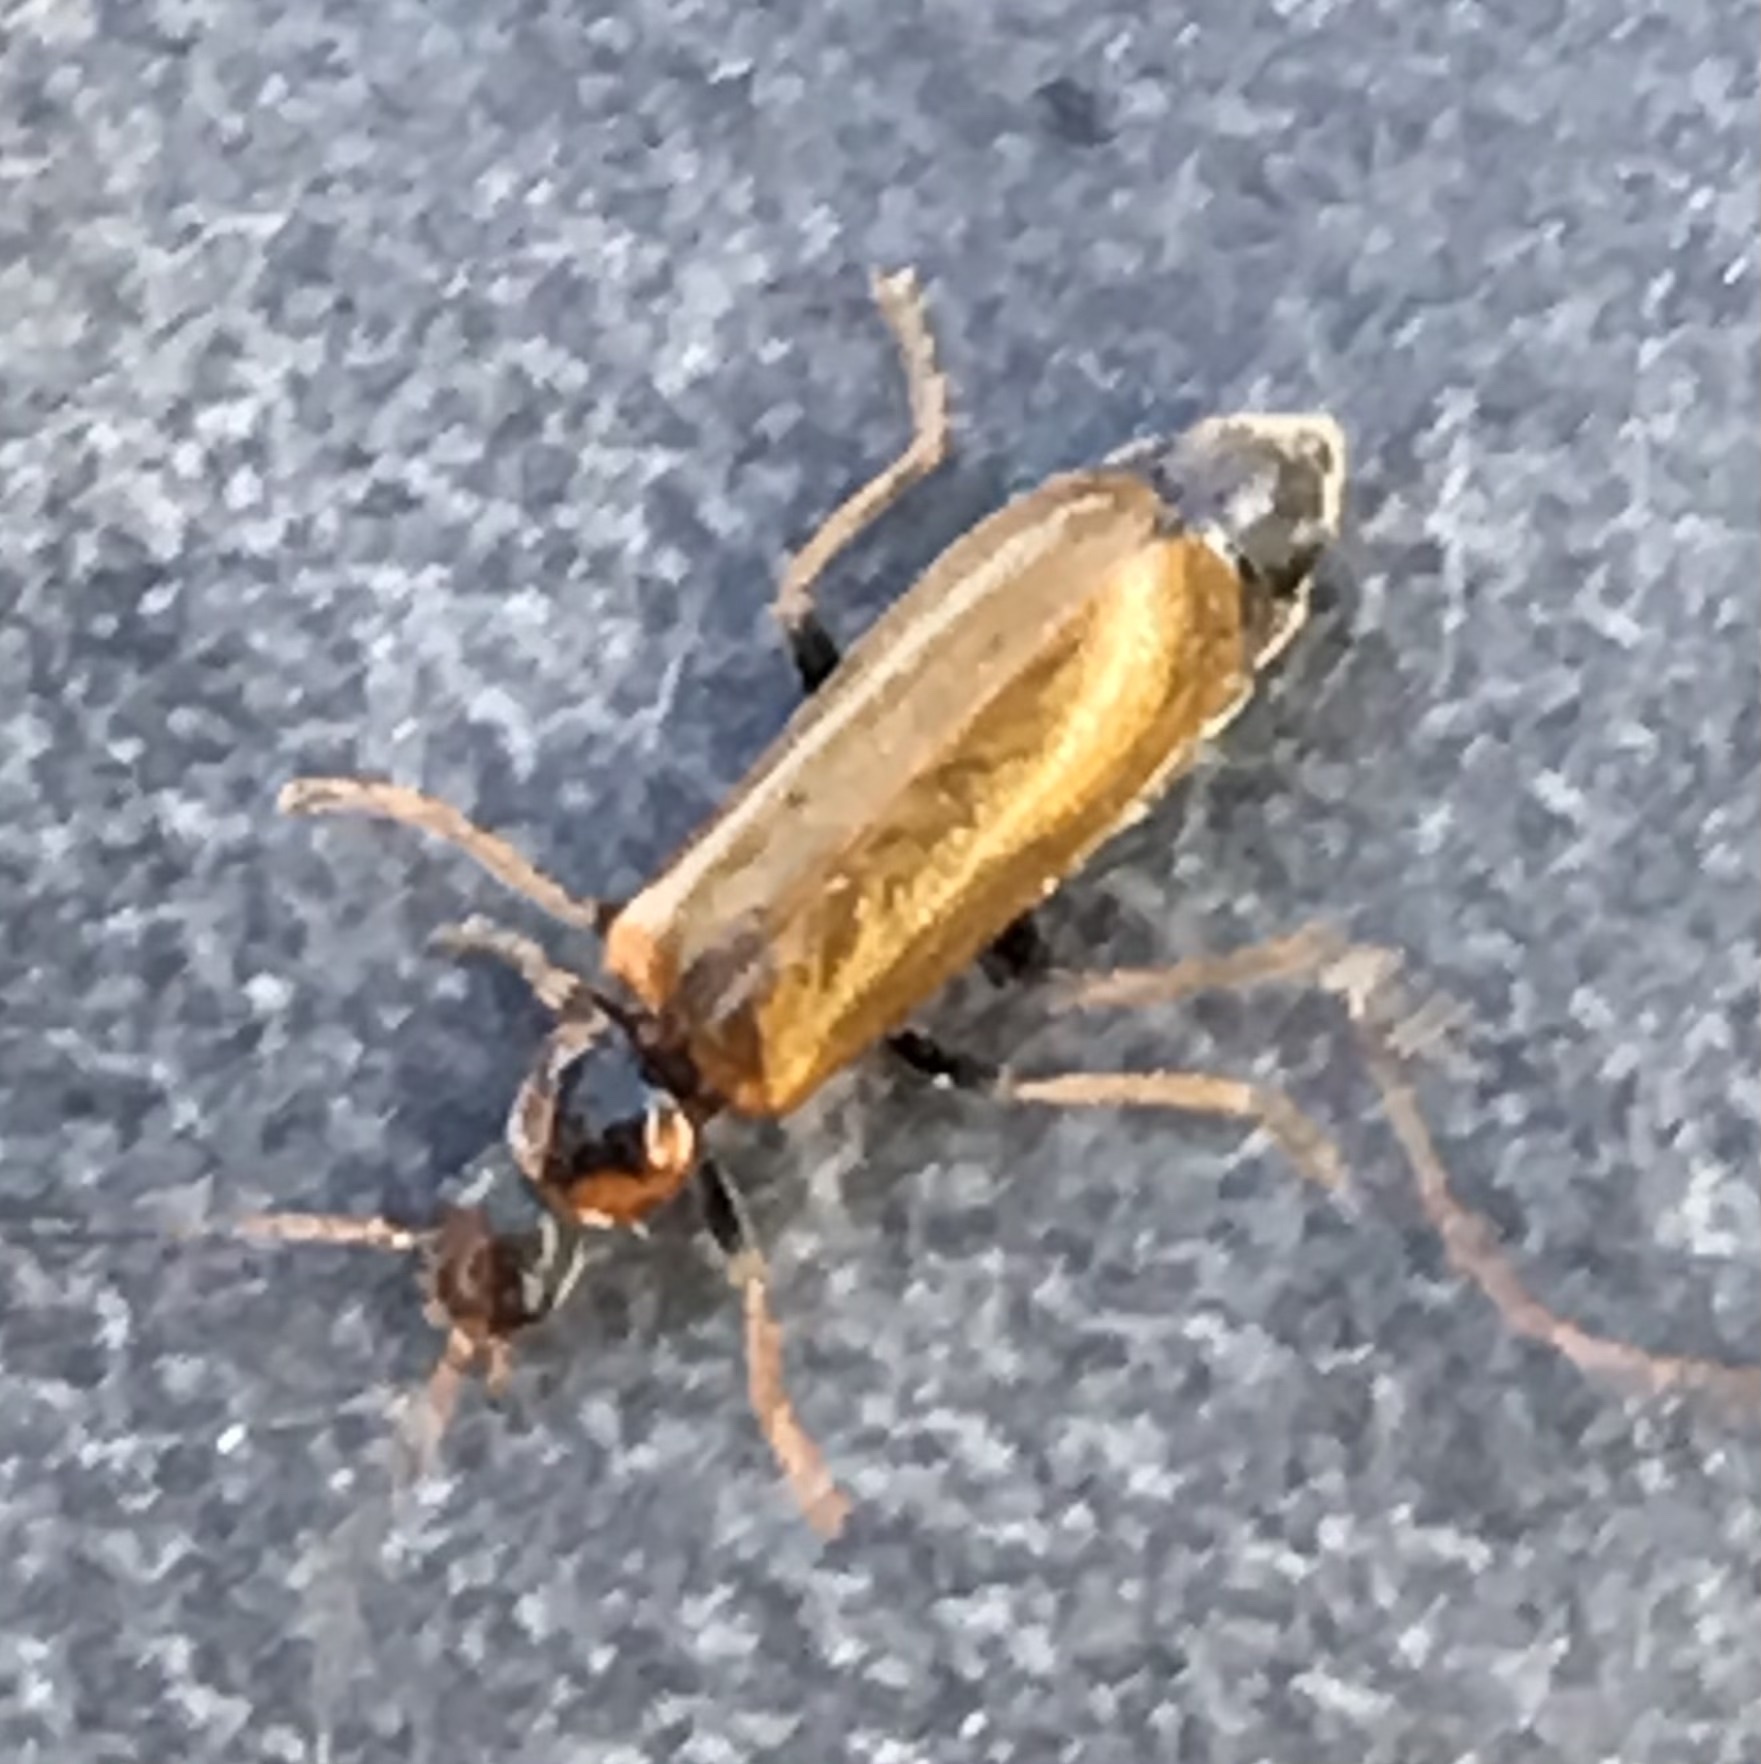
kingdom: Animalia
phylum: Arthropoda
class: Insecta
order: Coleoptera
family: Cantharidae
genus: Rhagonycha
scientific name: Rhagonycha nigriventris
